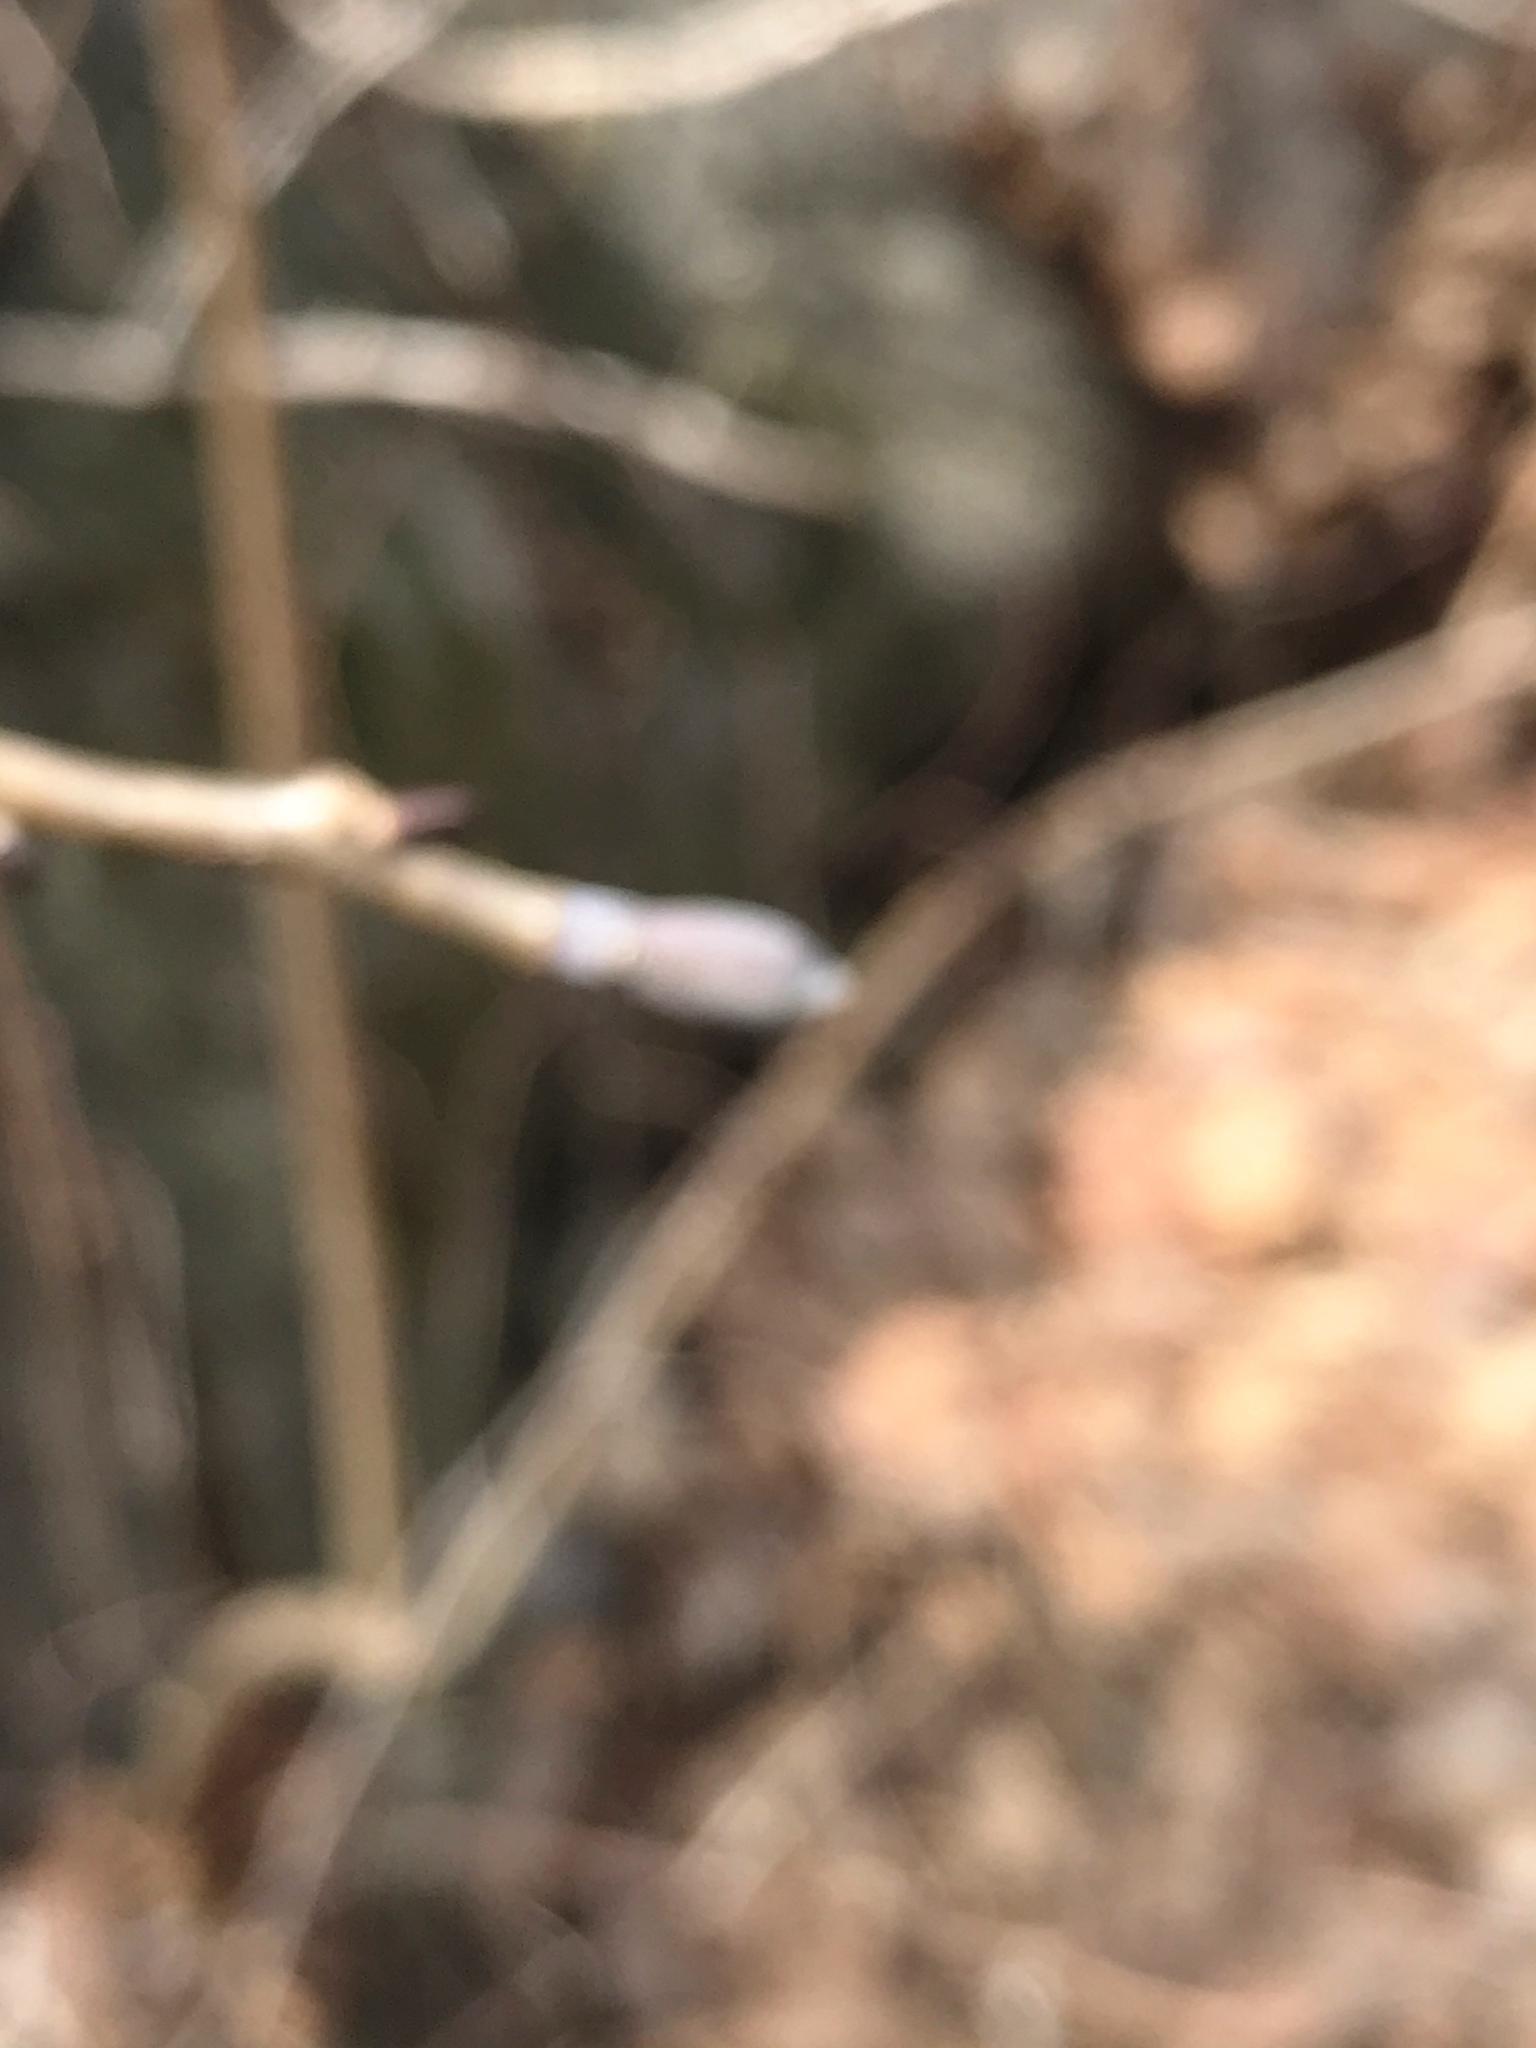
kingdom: Plantae
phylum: Tracheophyta
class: Magnoliopsida
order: Magnoliales
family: Magnoliaceae
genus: Liriodendron
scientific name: Liriodendron tulipifera
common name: Tulip tree
